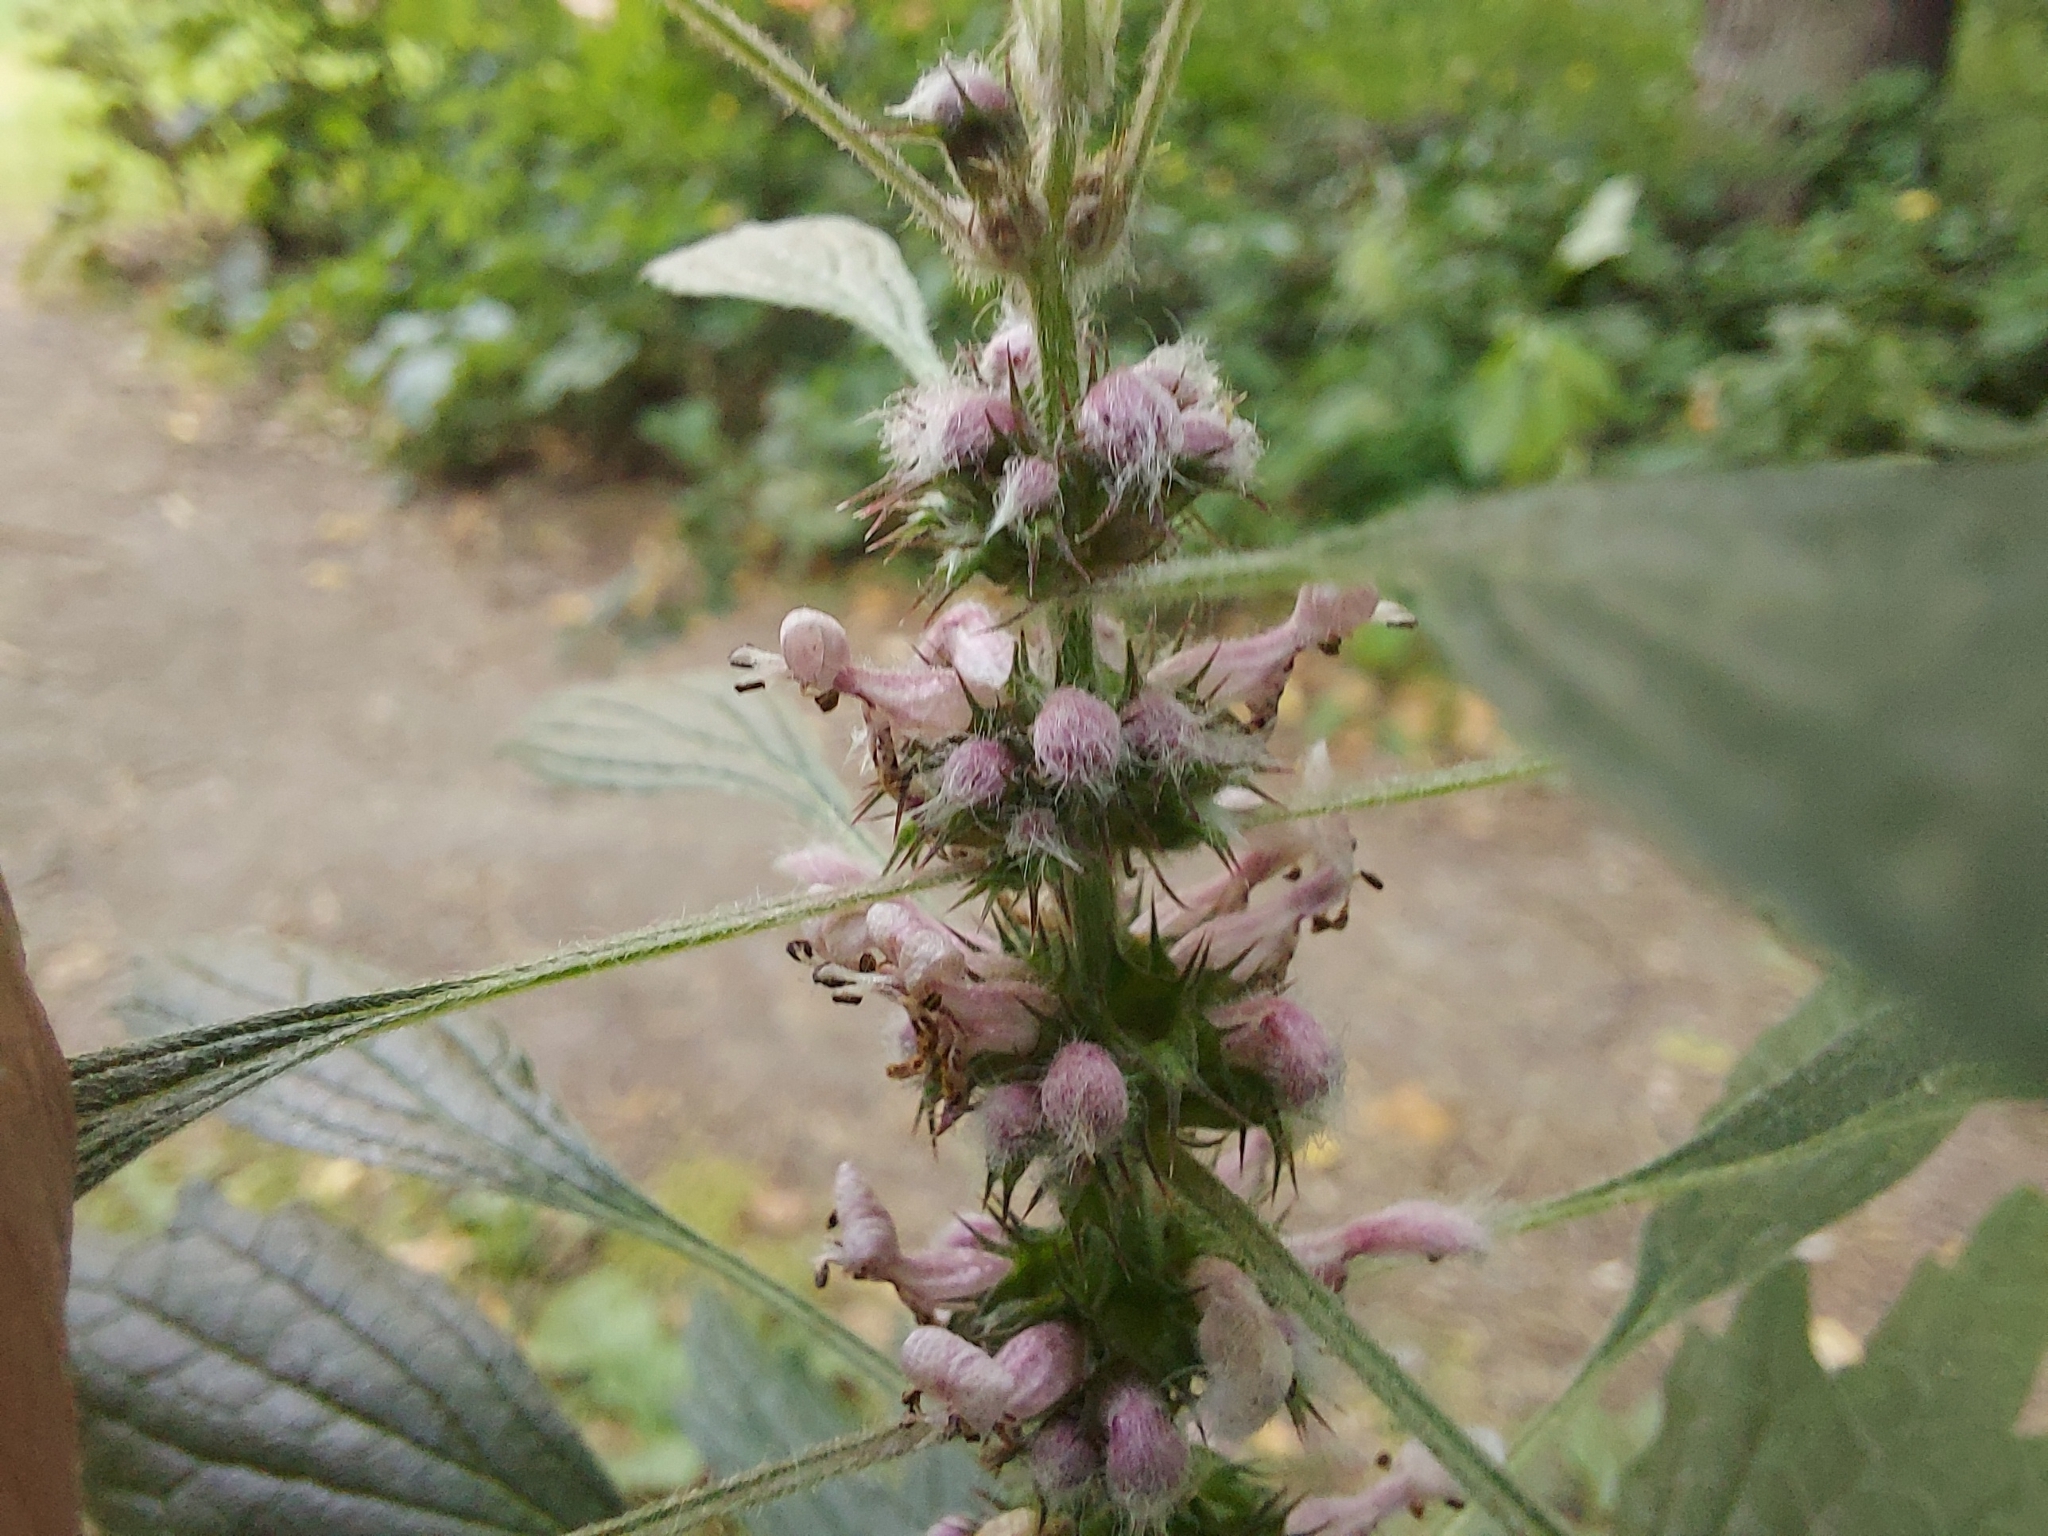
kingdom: Plantae
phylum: Tracheophyta
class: Magnoliopsida
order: Lamiales
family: Lamiaceae
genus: Leonurus
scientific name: Leonurus quinquelobatus
